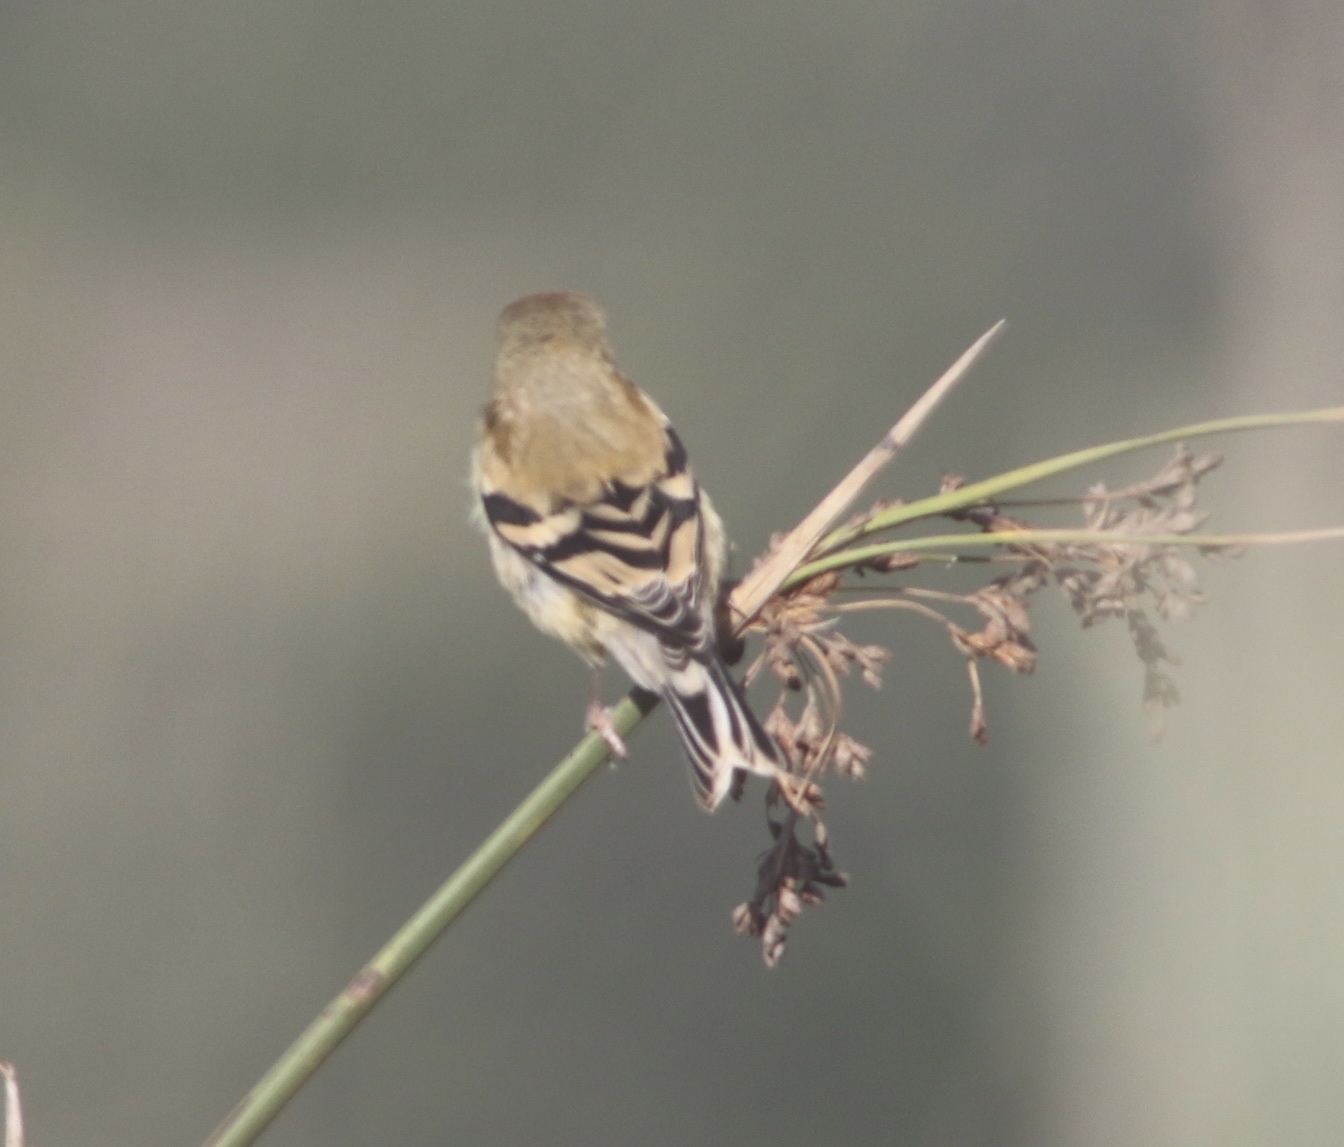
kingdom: Animalia
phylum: Chordata
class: Aves
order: Passeriformes
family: Fringillidae
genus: Spinus
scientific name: Spinus tristis
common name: American goldfinch
